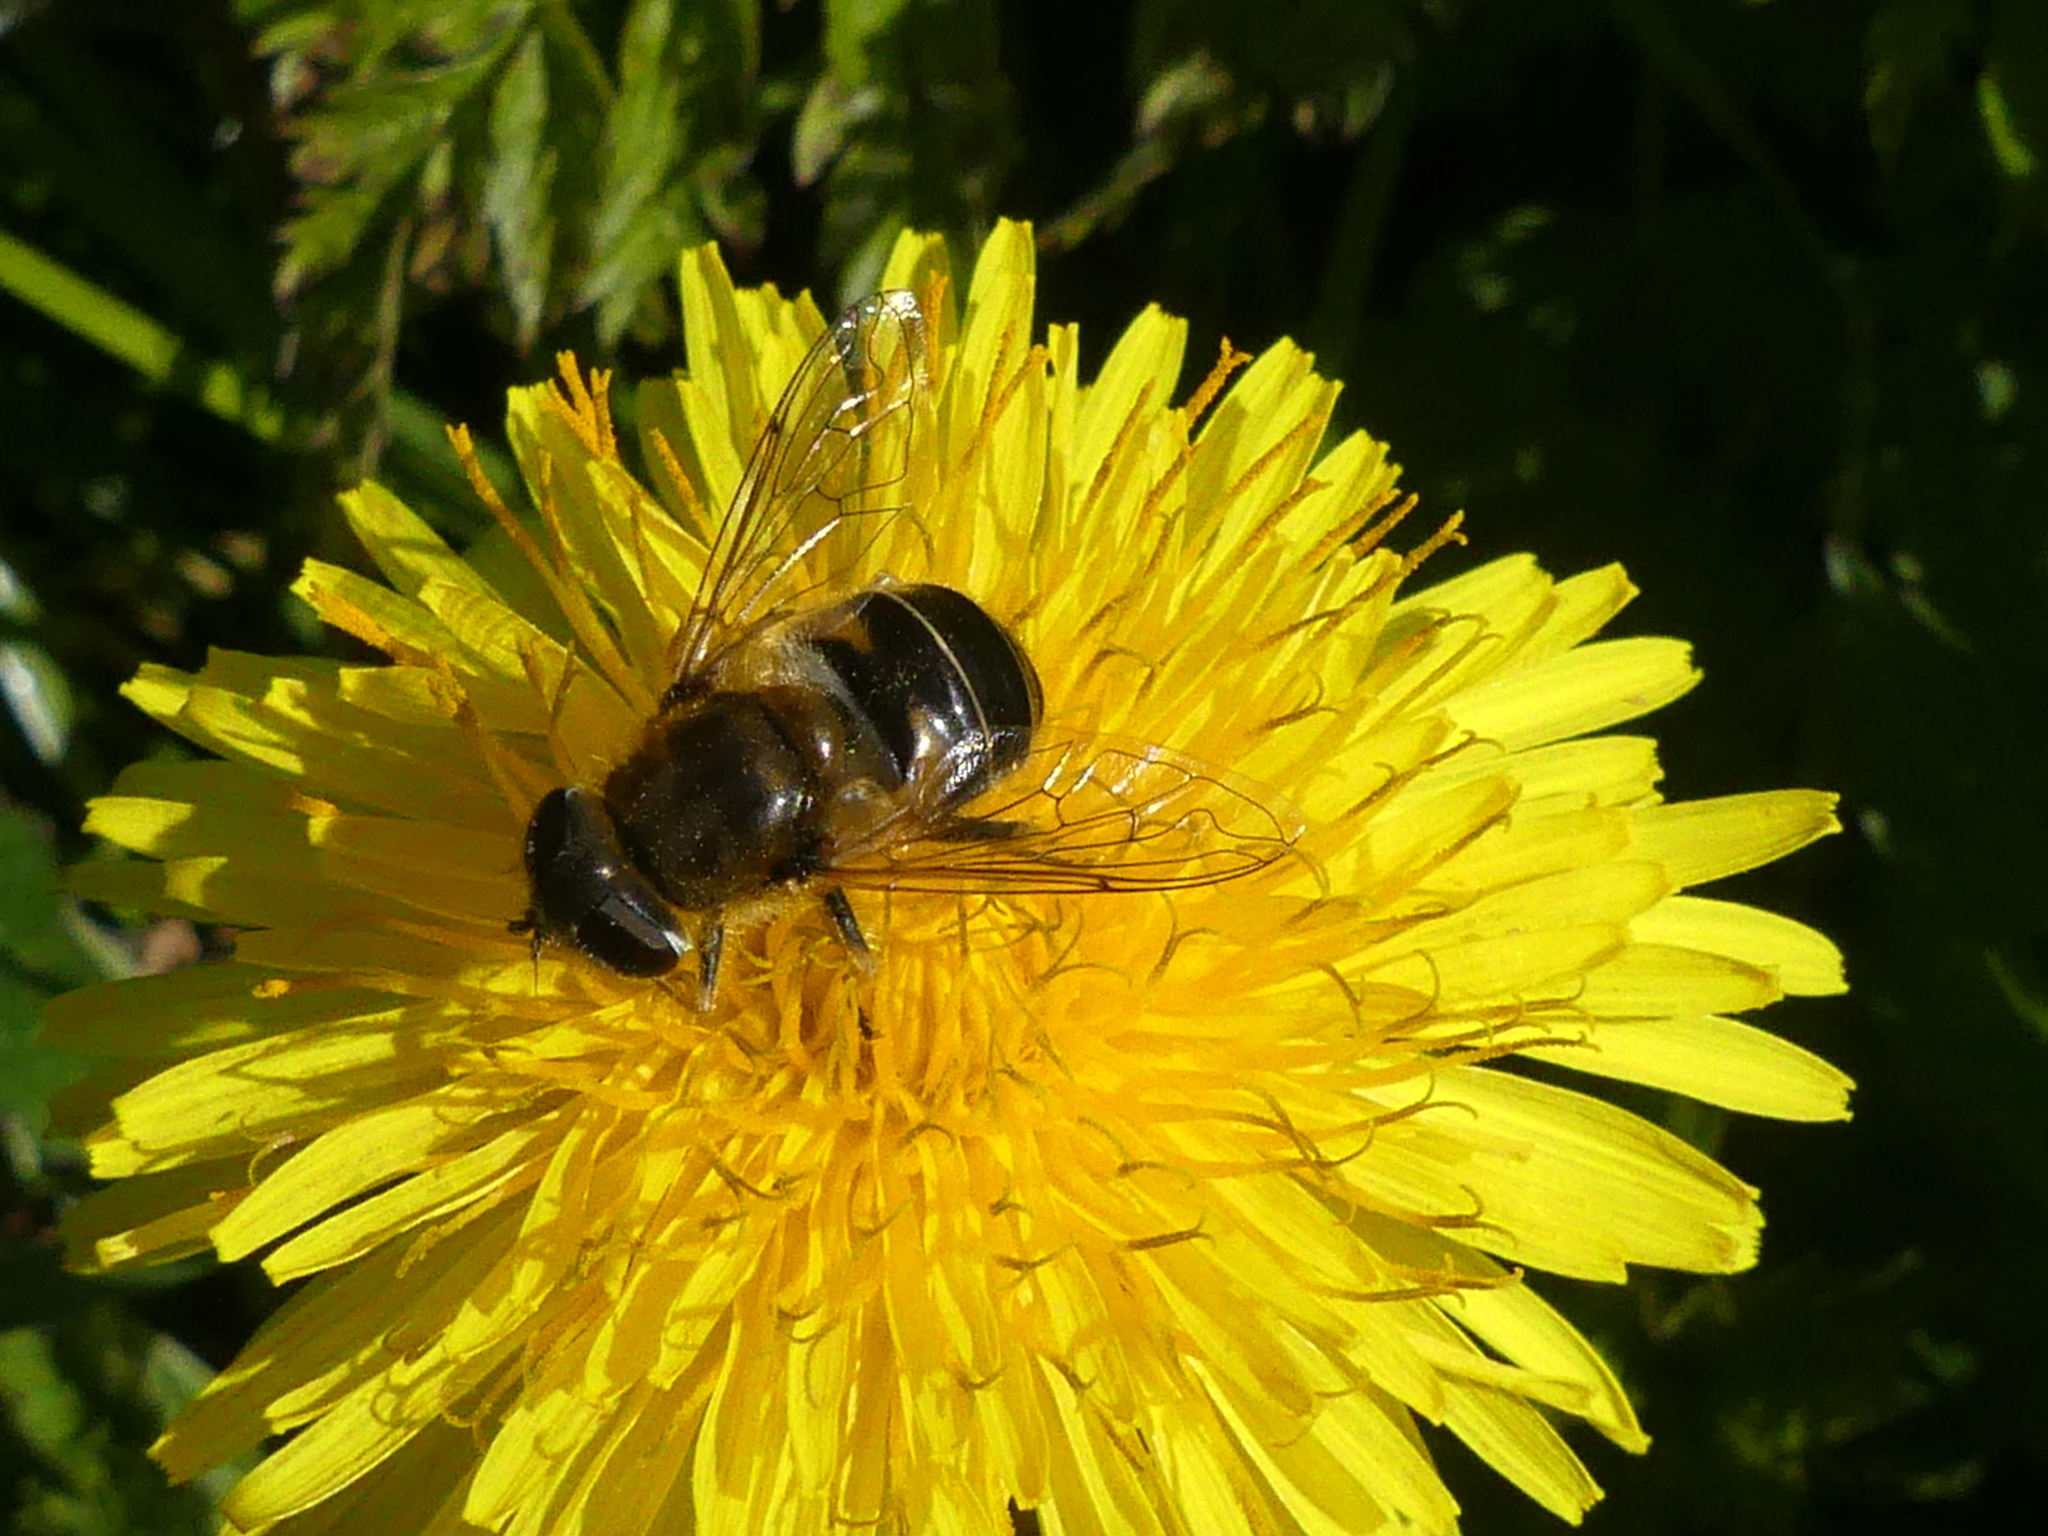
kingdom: Animalia
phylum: Arthropoda
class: Insecta
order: Diptera
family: Syrphidae
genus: Eristalis
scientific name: Eristalis nemorum
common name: Orange-spined drone fly
